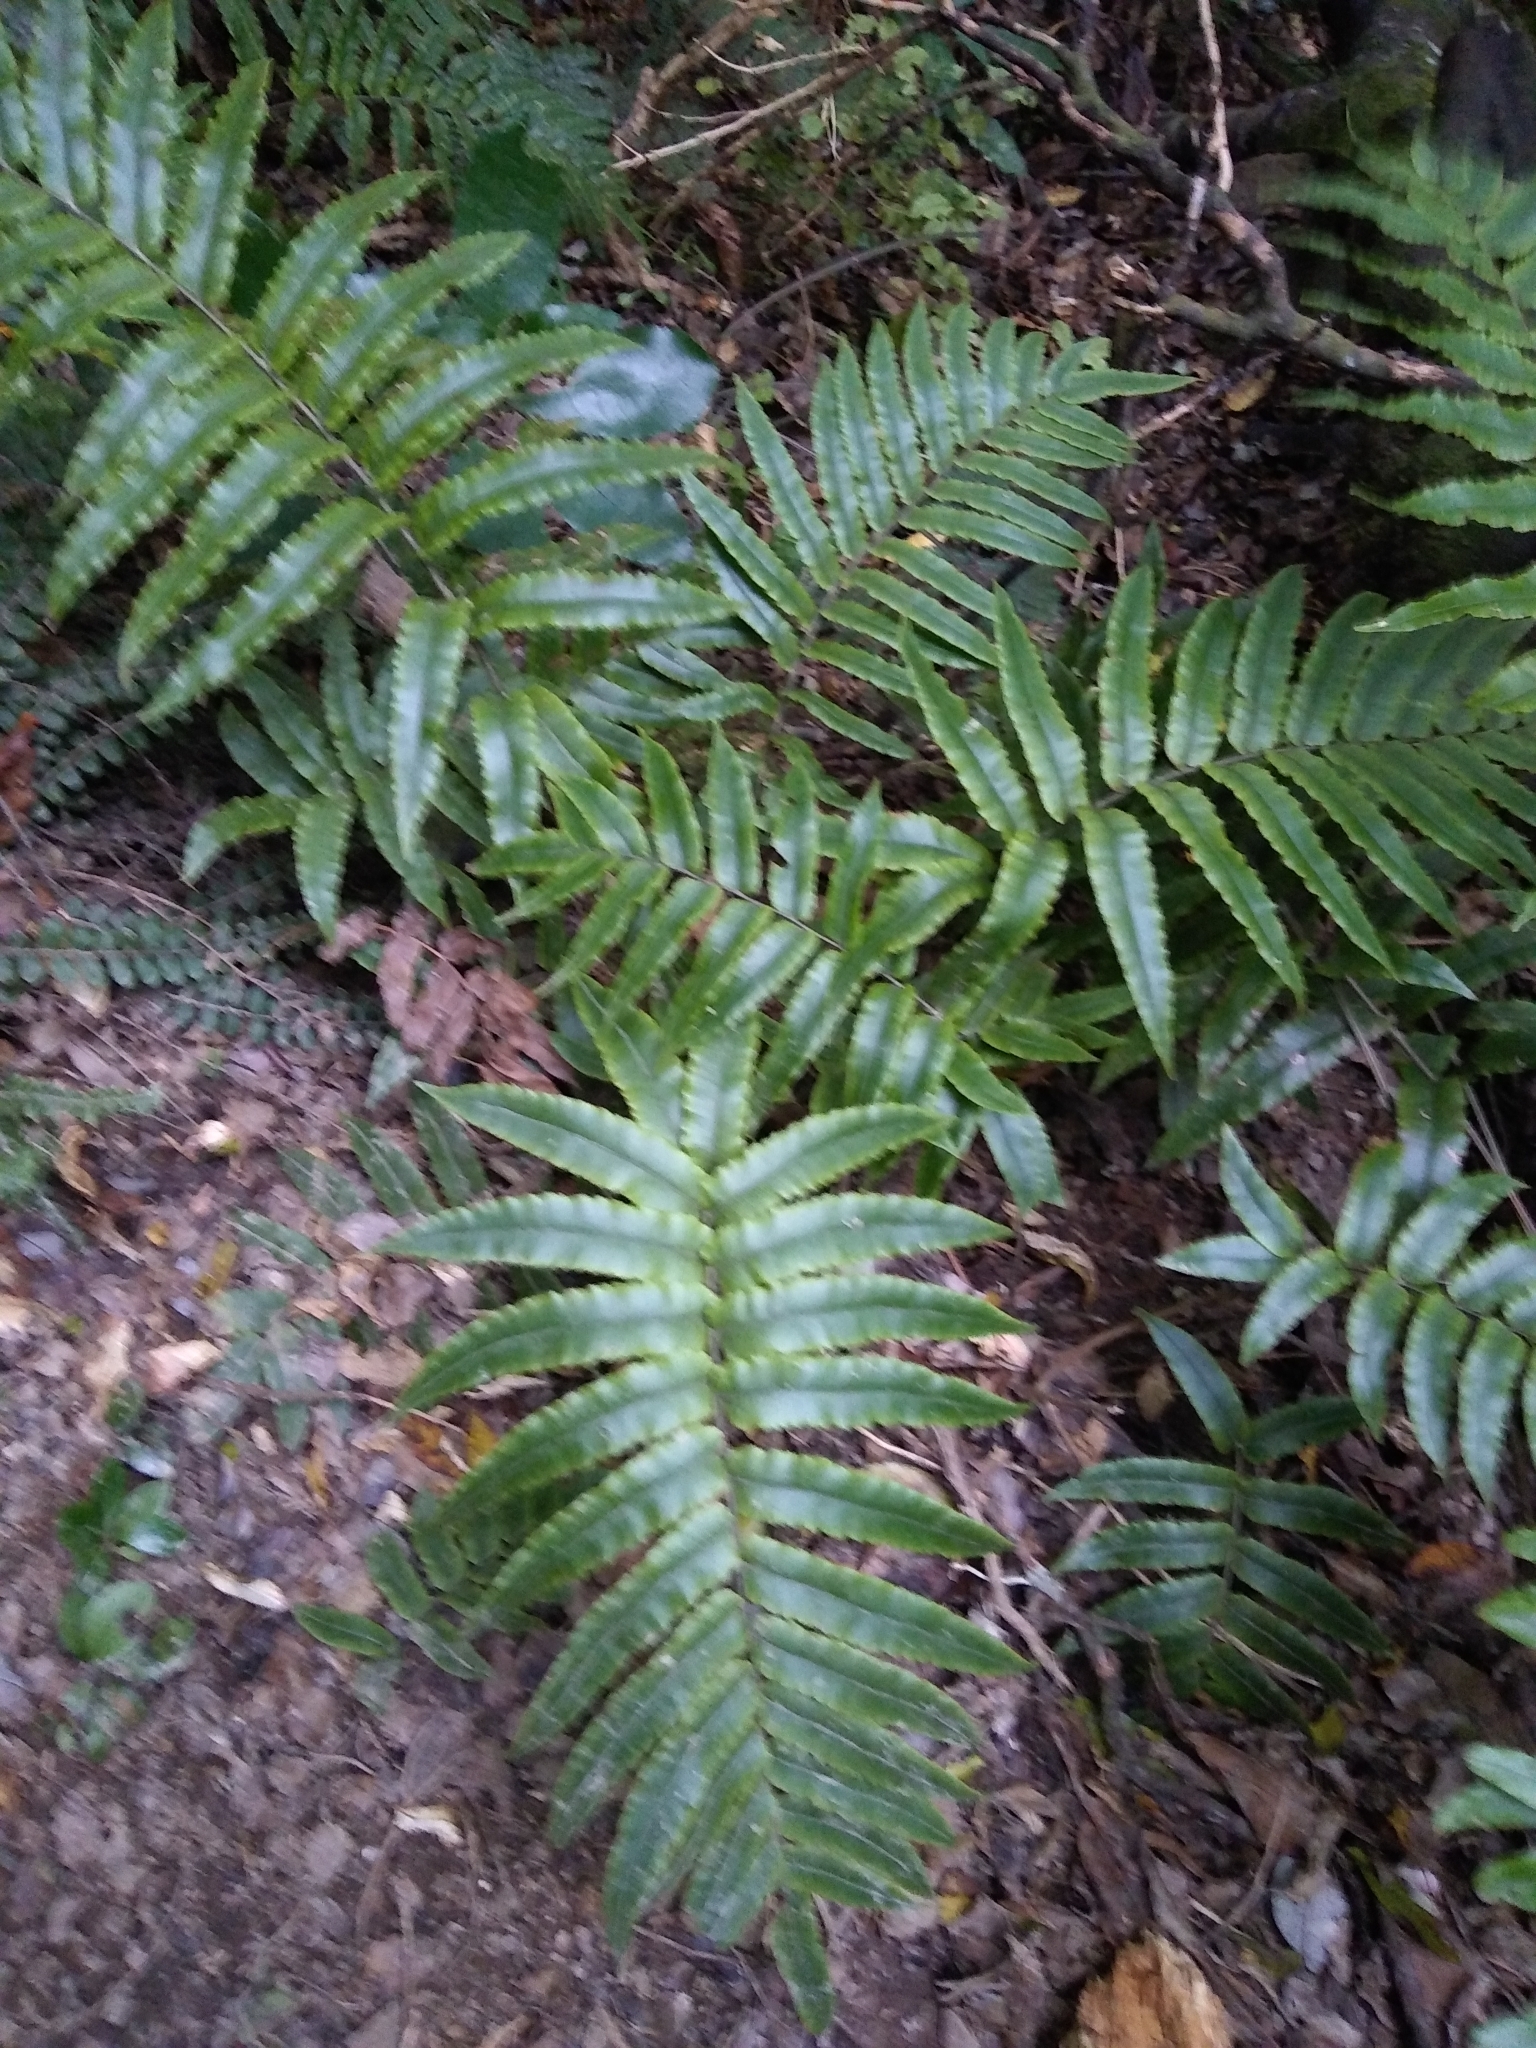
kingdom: Plantae
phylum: Tracheophyta
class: Polypodiopsida
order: Polypodiales
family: Blechnaceae
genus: Parablechnum
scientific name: Parablechnum procerum
